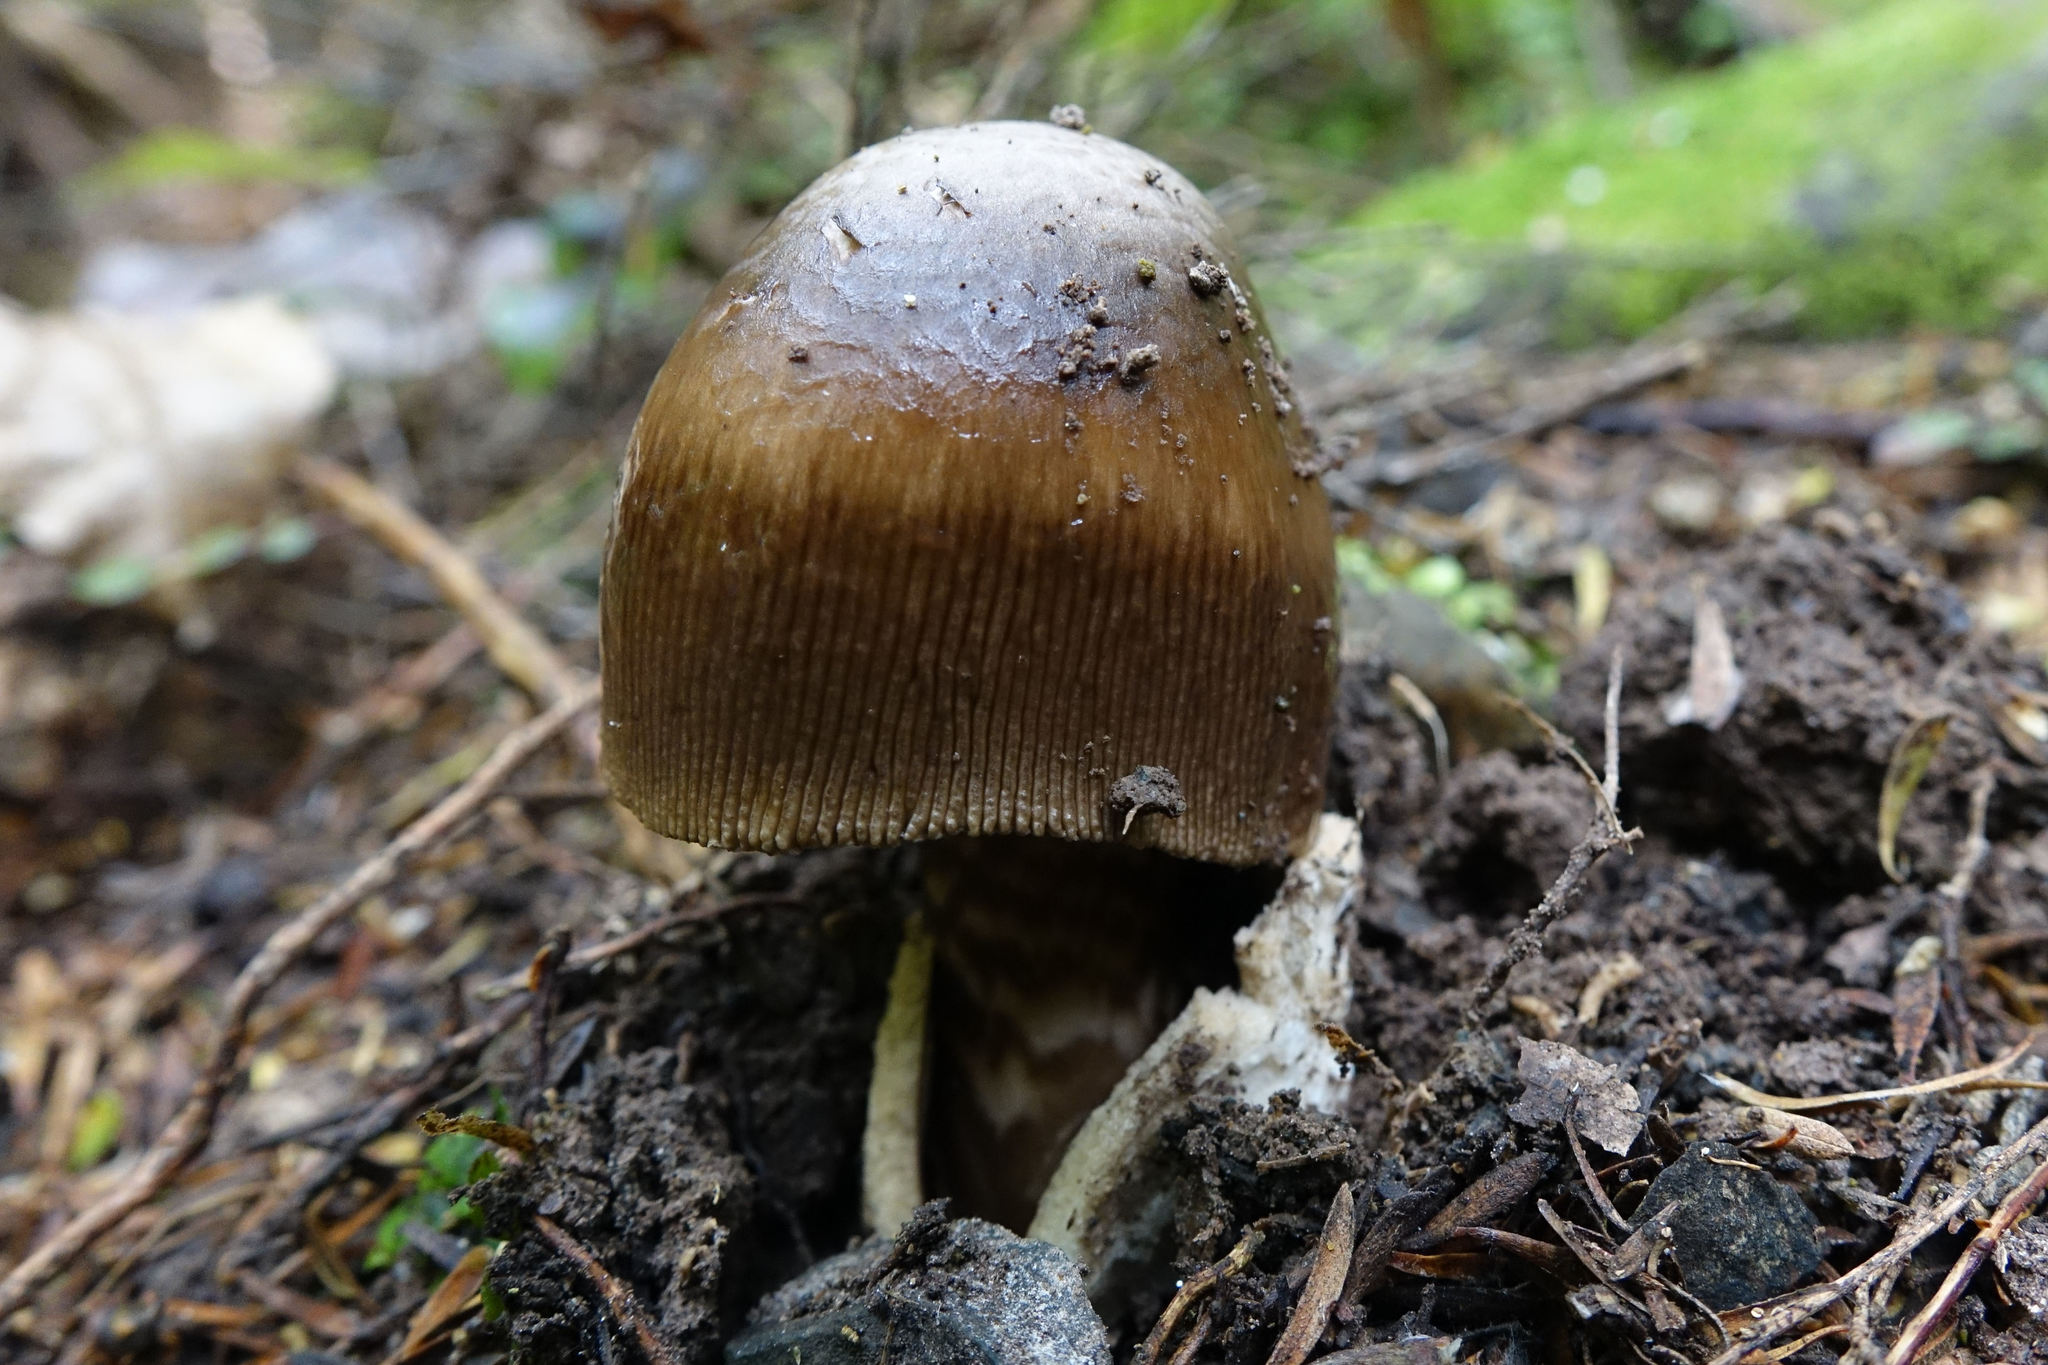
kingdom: Fungi
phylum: Basidiomycota
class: Agaricomycetes
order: Agaricales
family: Amanitaceae
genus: Amanita
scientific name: Amanita pekeoides
